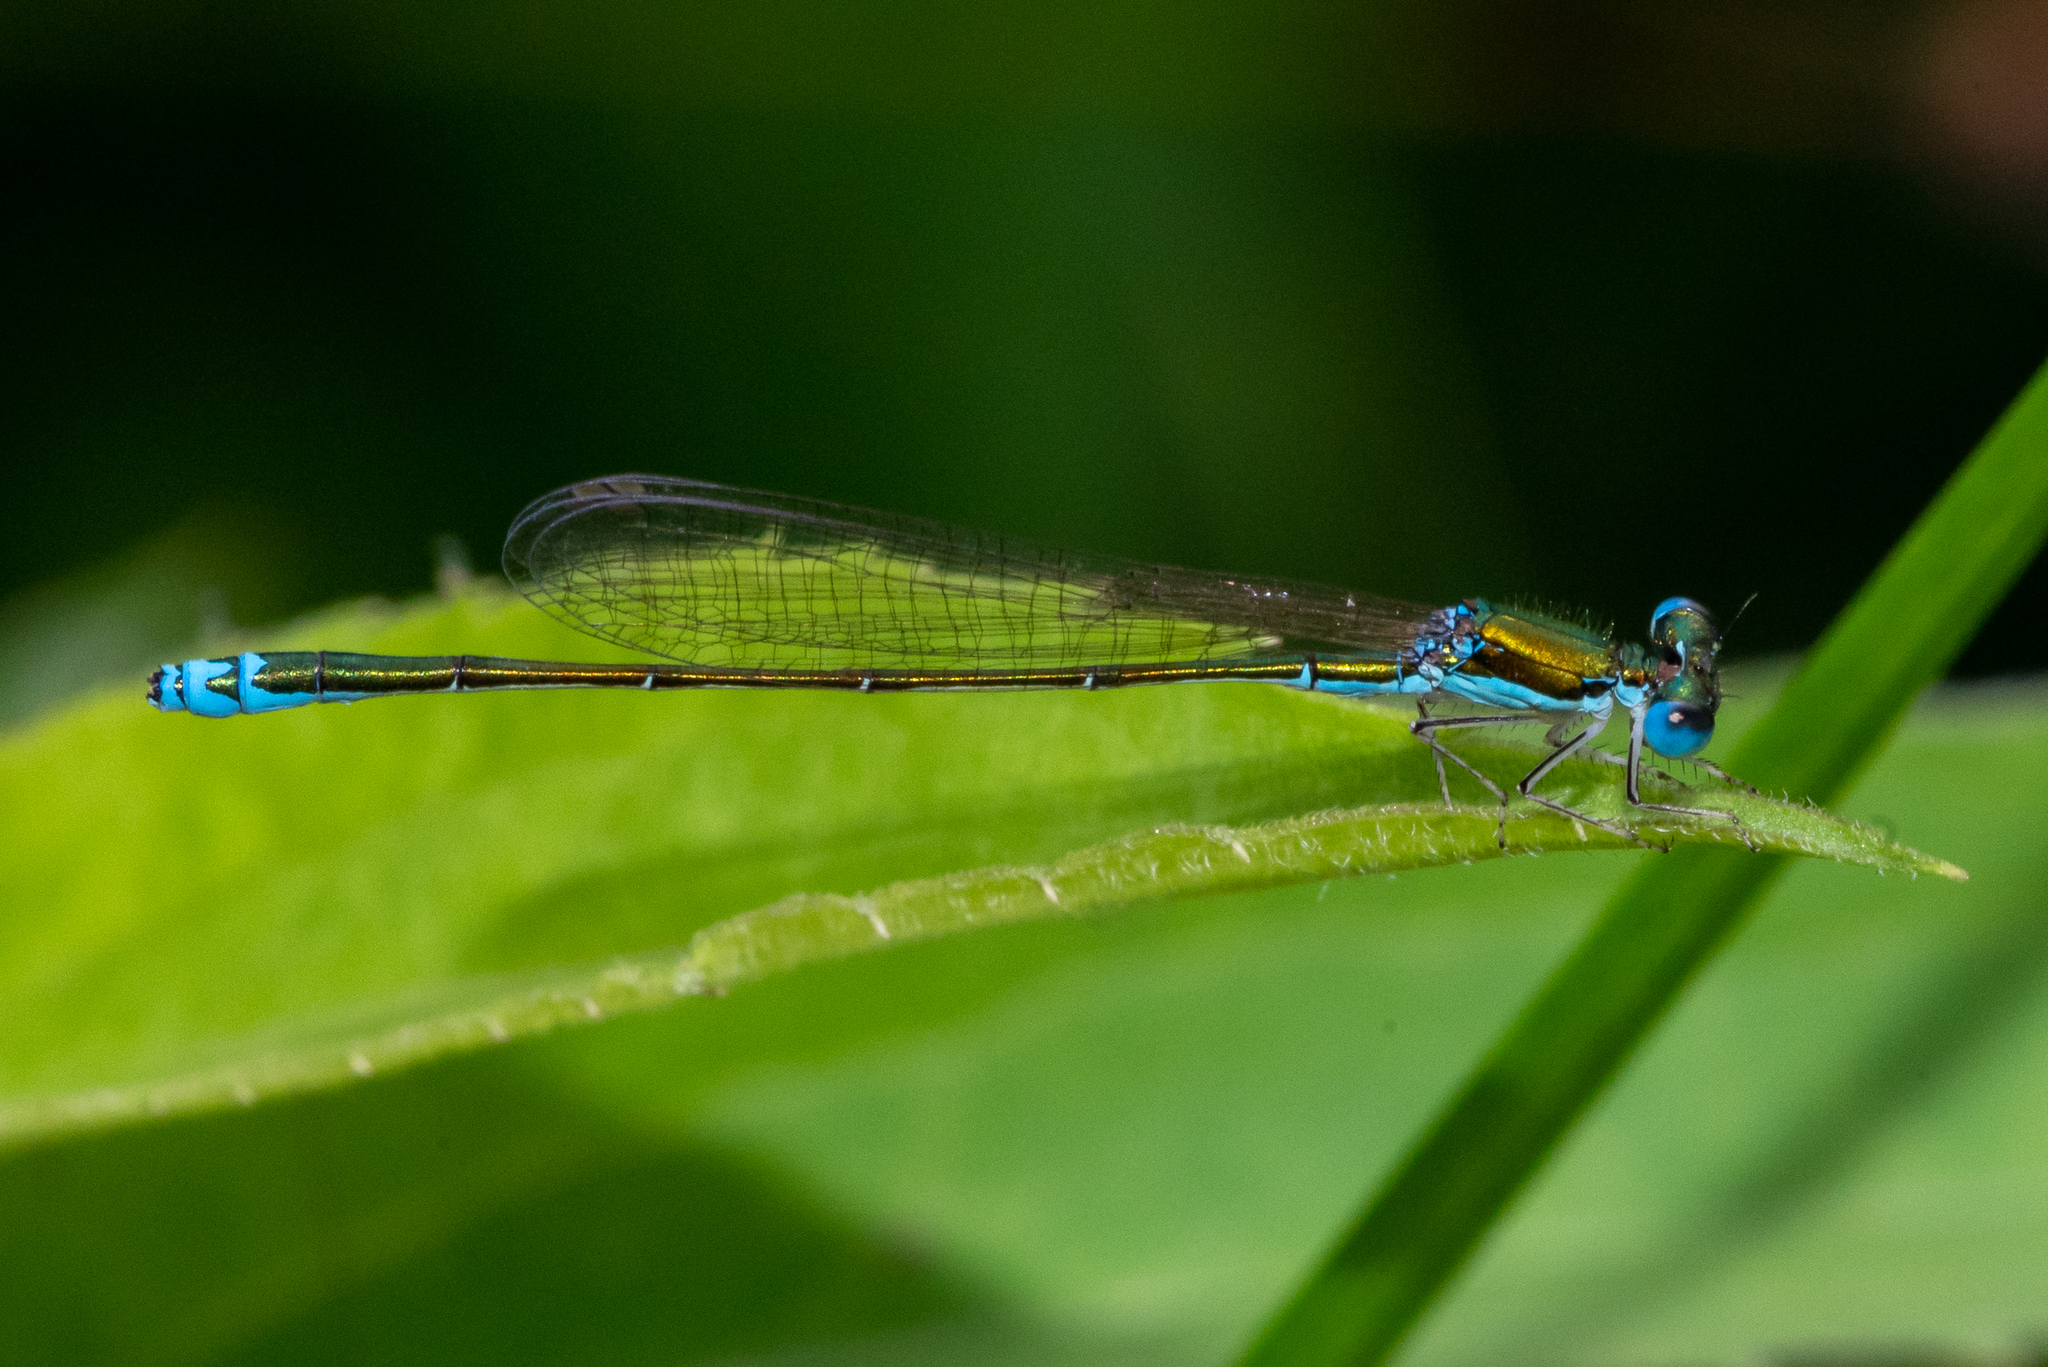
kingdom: Animalia
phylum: Arthropoda
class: Insecta
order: Odonata
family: Coenagrionidae
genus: Nehalennia
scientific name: Nehalennia irene
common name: Sedge sprite
